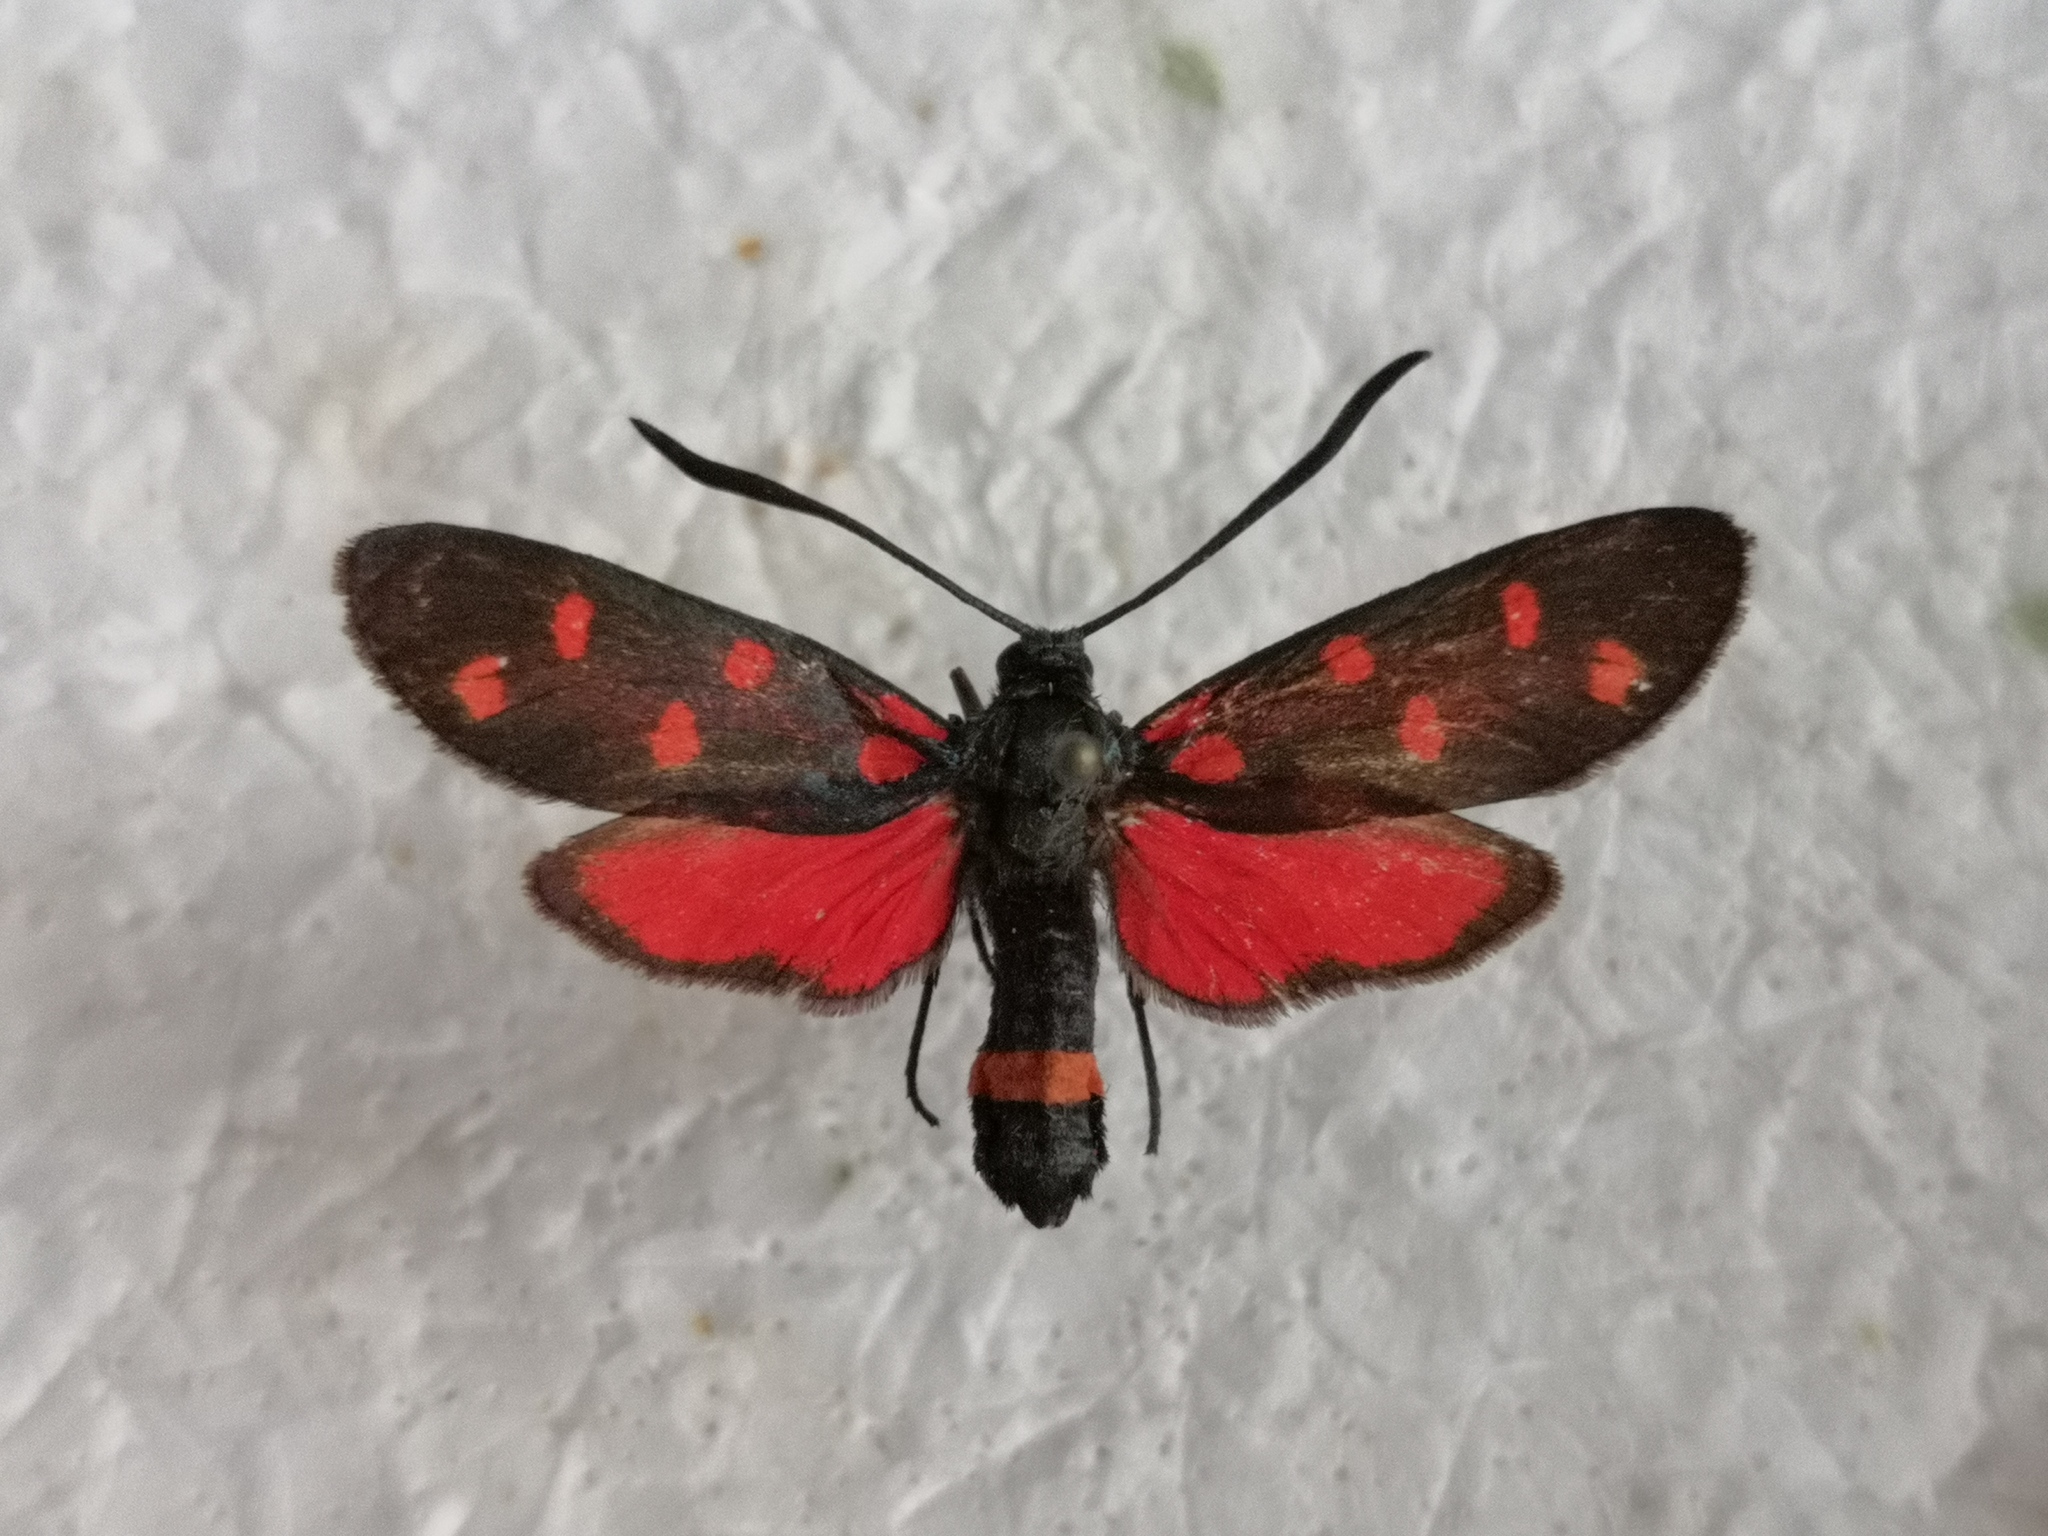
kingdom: Animalia
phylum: Arthropoda
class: Insecta
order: Lepidoptera
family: Zygaenidae
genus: Zygaena
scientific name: Zygaena ephialtes
